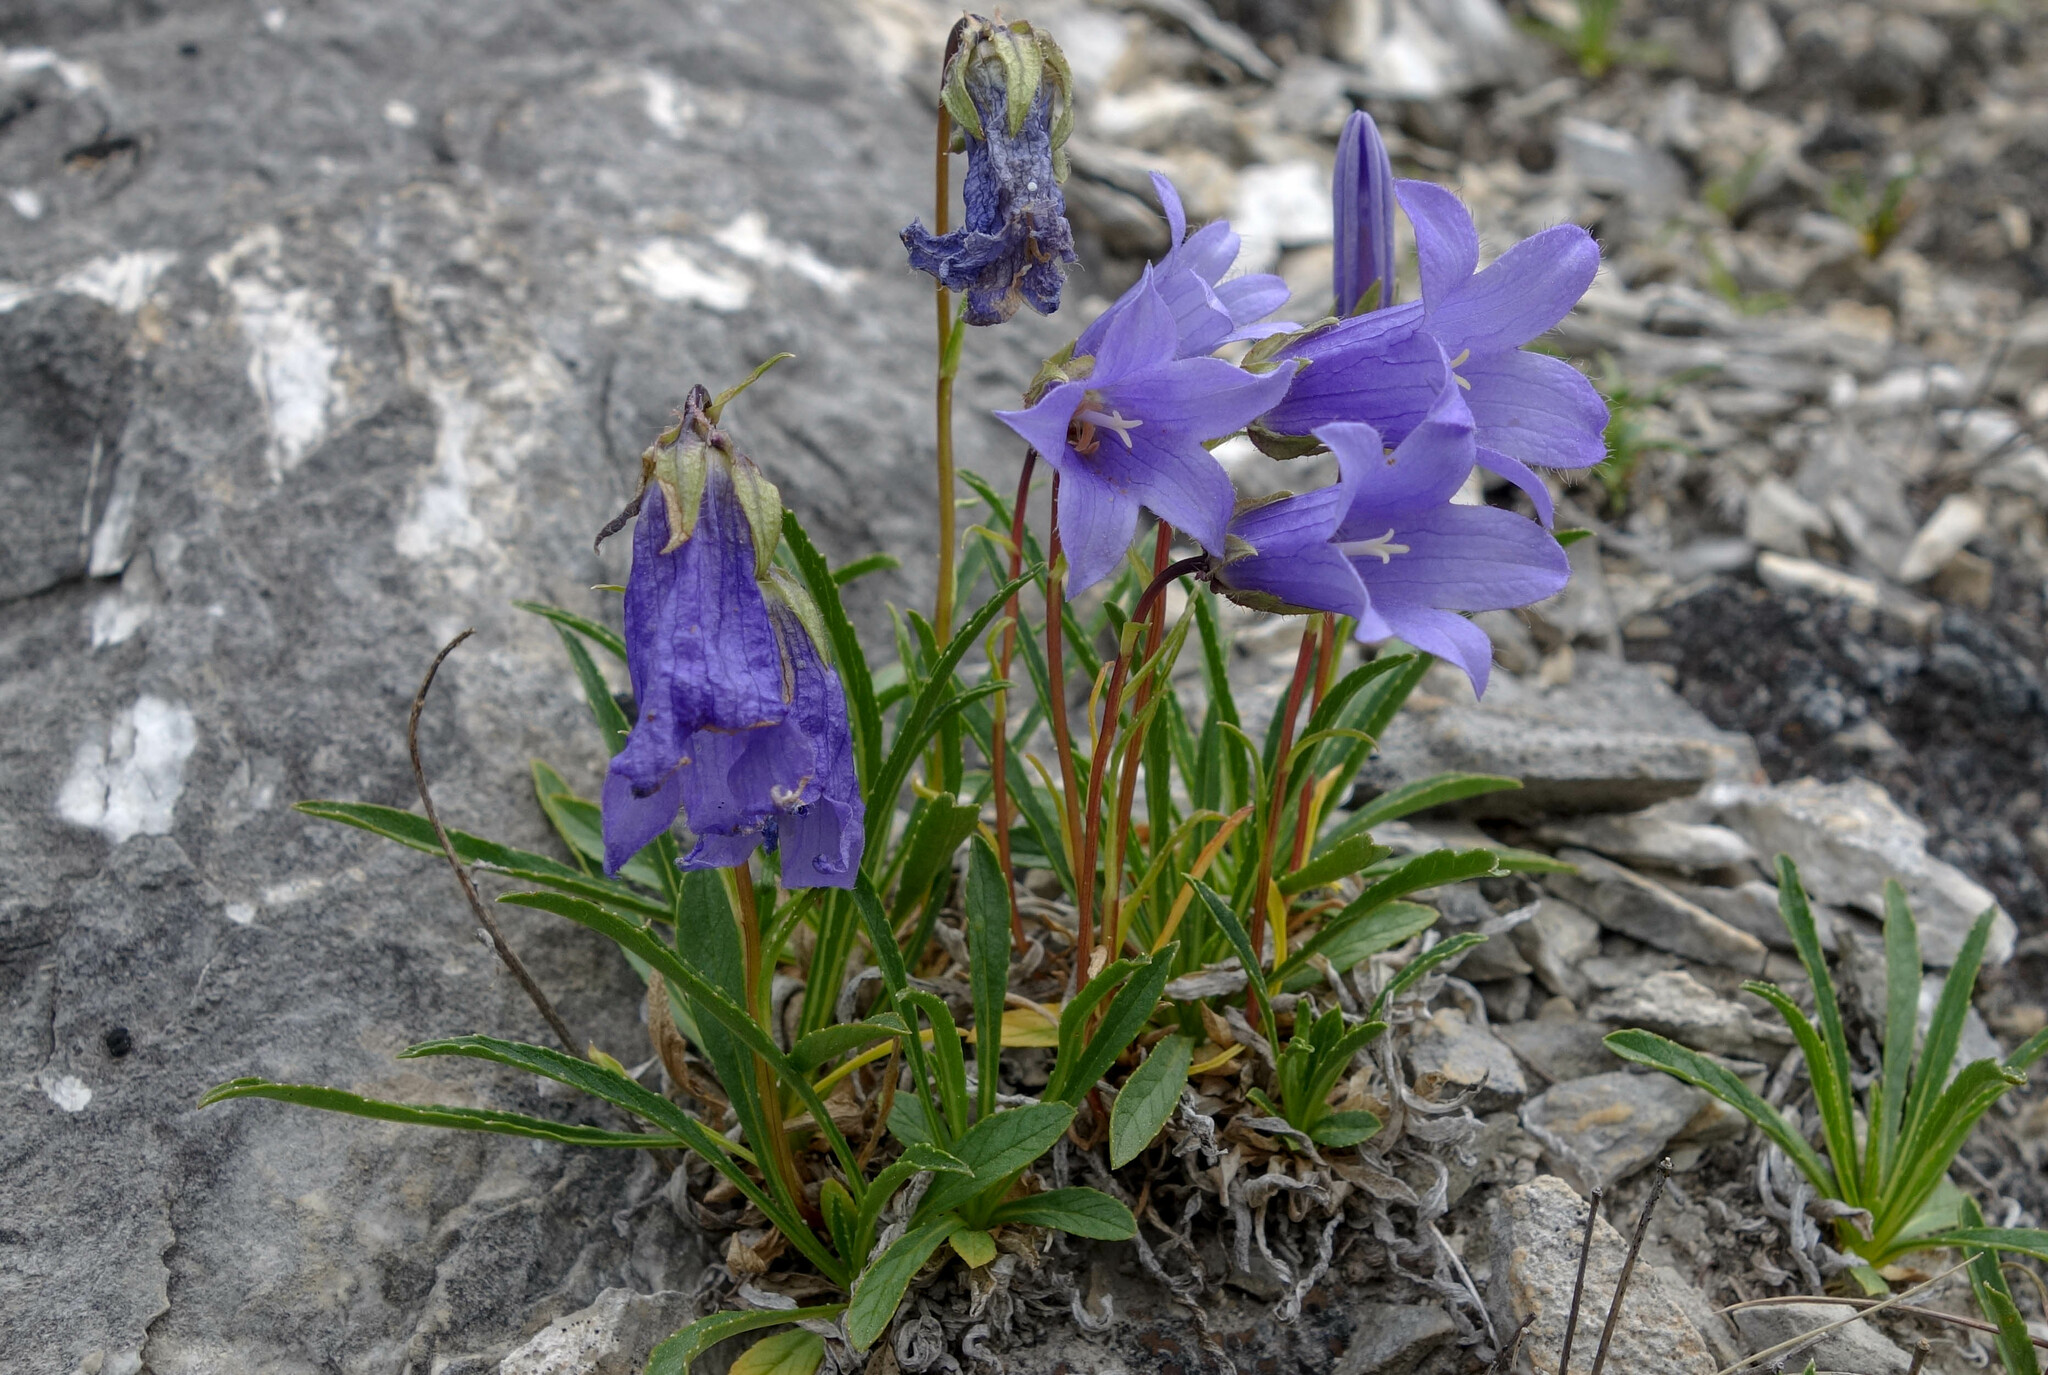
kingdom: Plantae
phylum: Tracheophyta
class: Magnoliopsida
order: Asterales
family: Campanulaceae
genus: Campanula
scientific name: Campanula dasyantha
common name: Hairyflower bellflower
